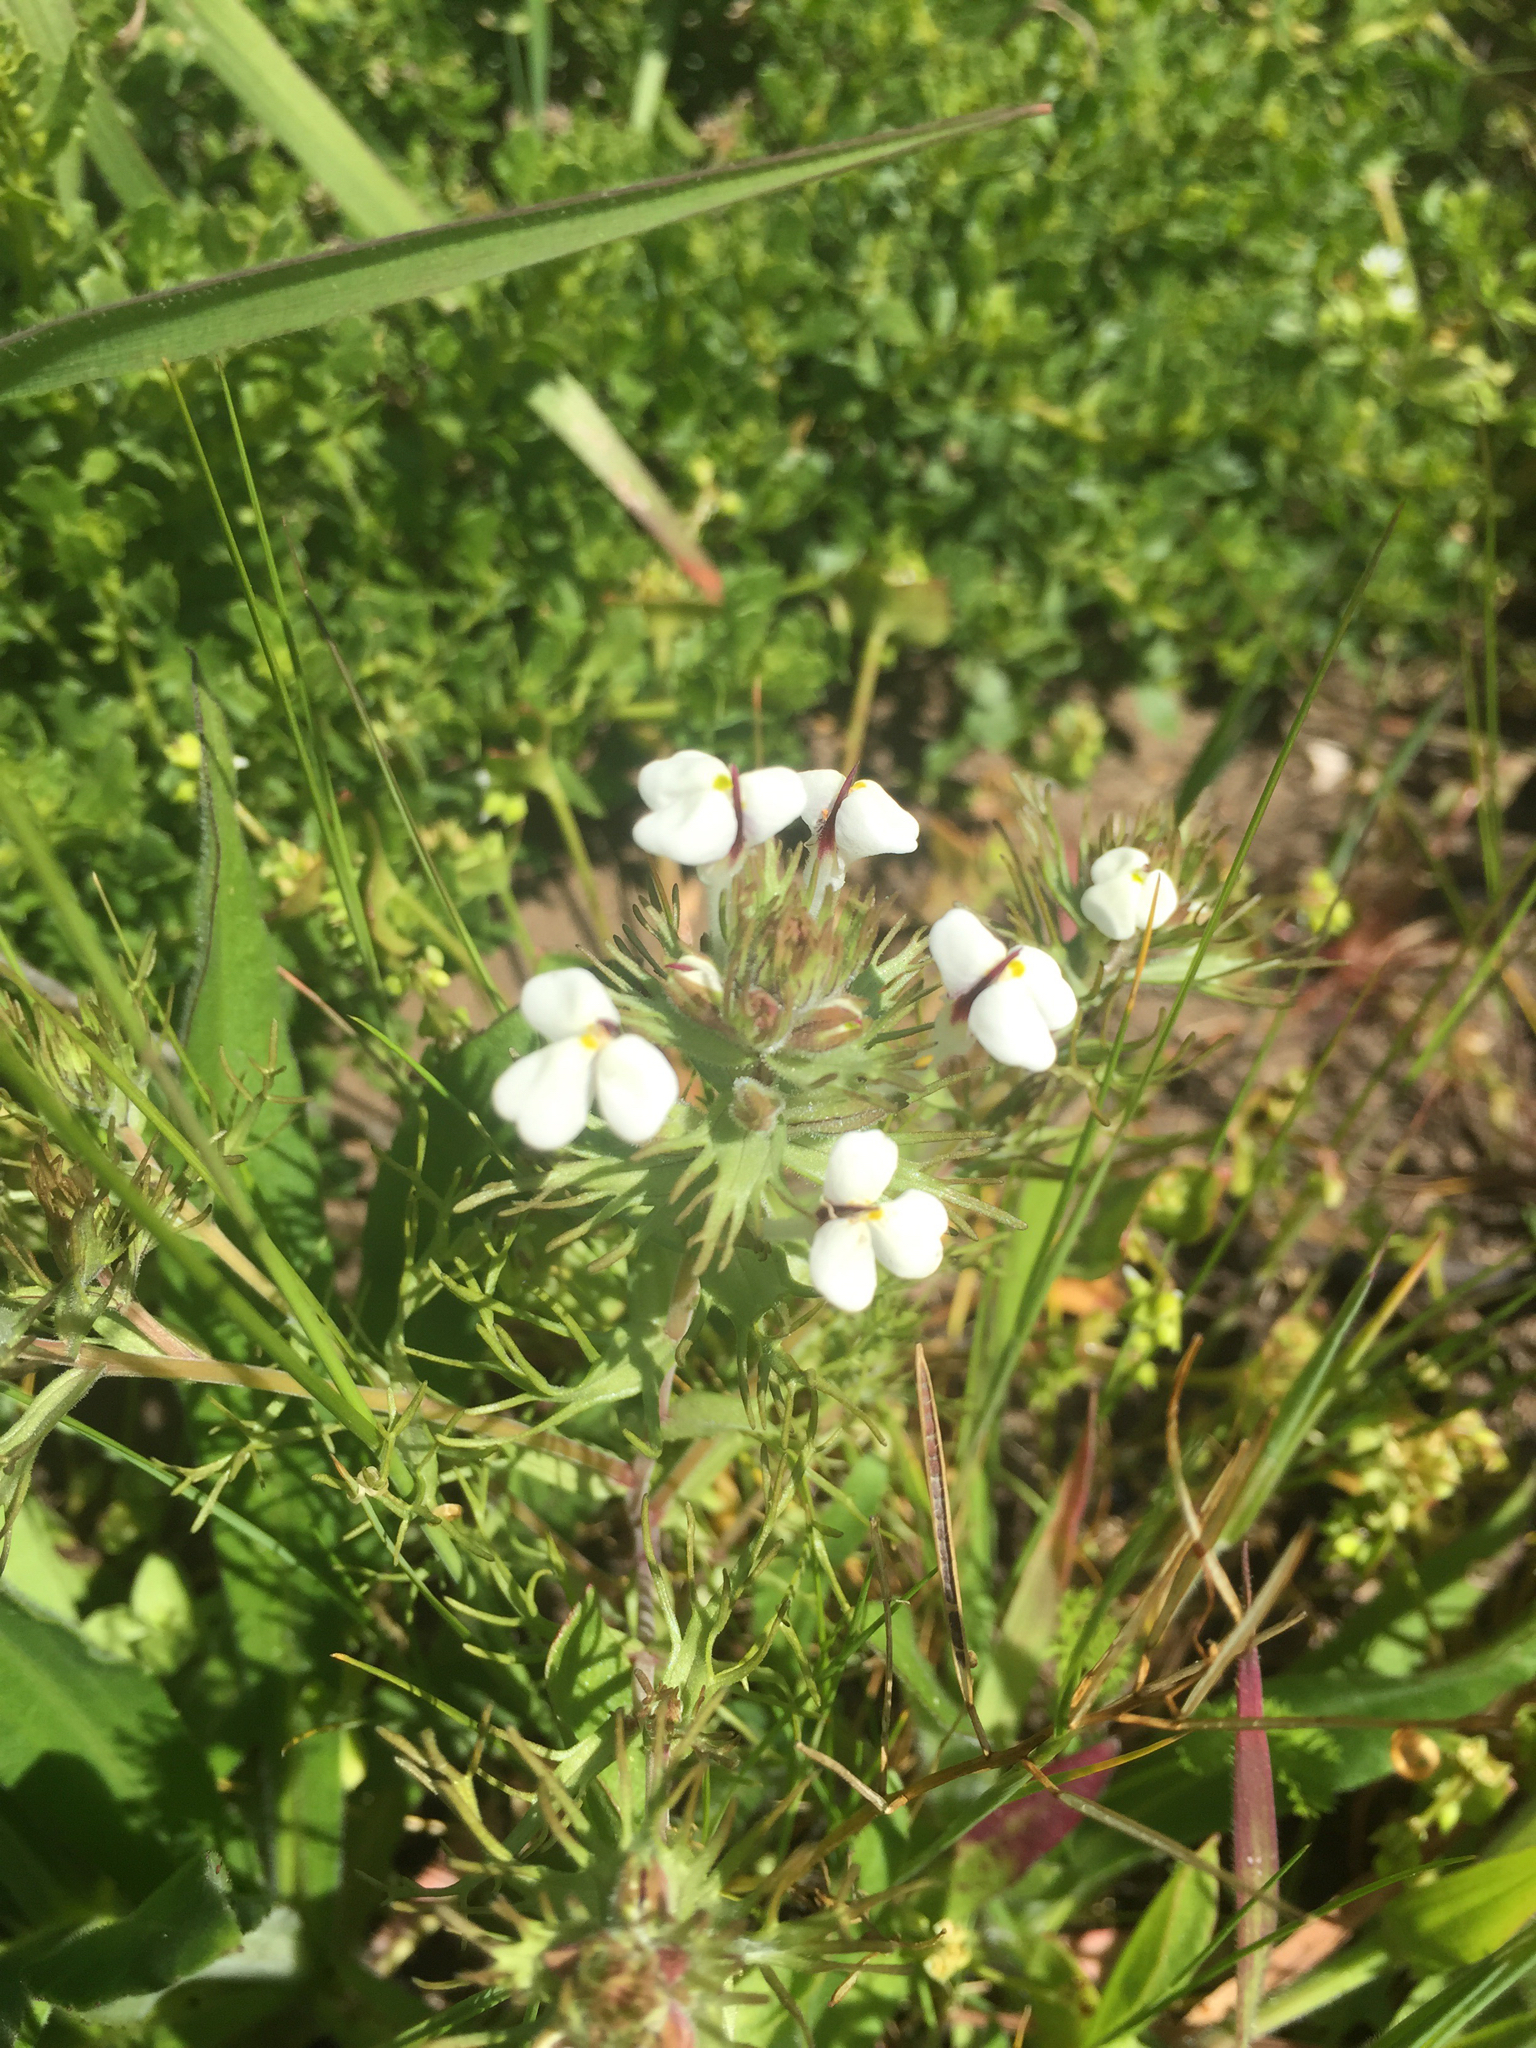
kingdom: Plantae
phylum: Tracheophyta
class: Magnoliopsida
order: Lamiales
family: Orobanchaceae
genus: Triphysaria
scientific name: Triphysaria eriantha
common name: Johnny-tuck
